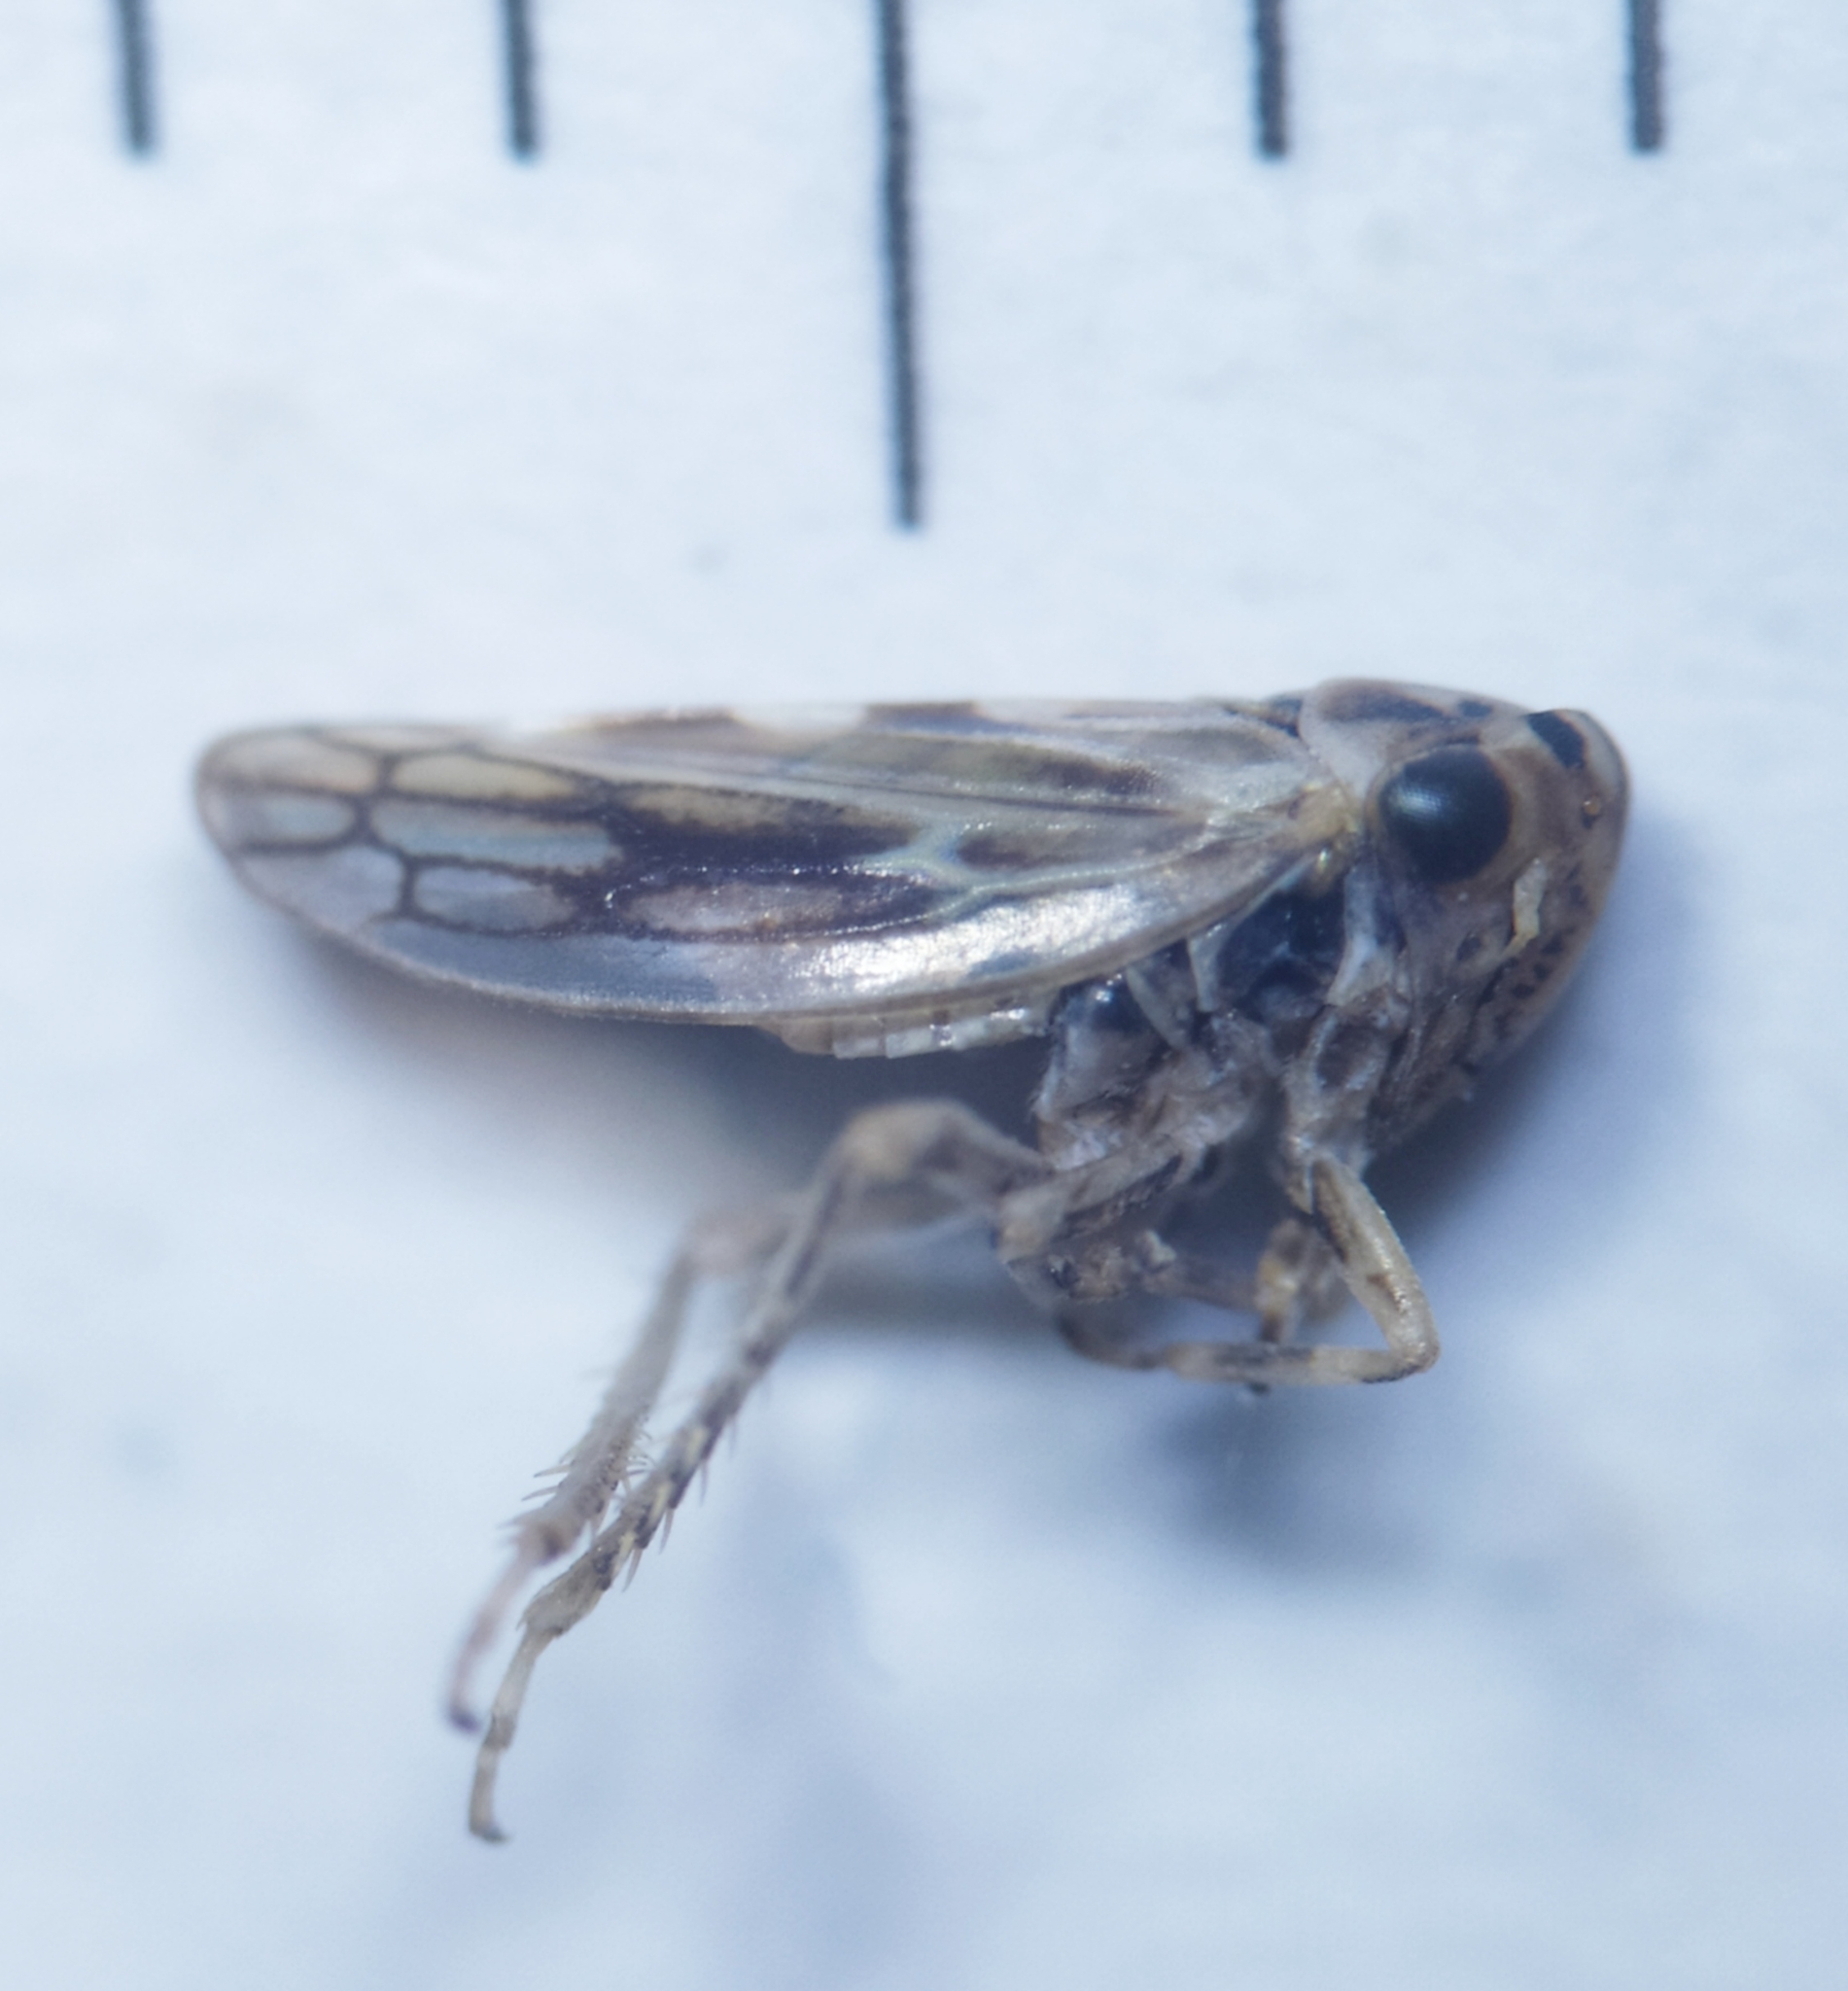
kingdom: Animalia
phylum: Arthropoda
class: Insecta
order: Hemiptera
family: Cicadellidae
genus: Agallia
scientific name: Agallia consobrina
